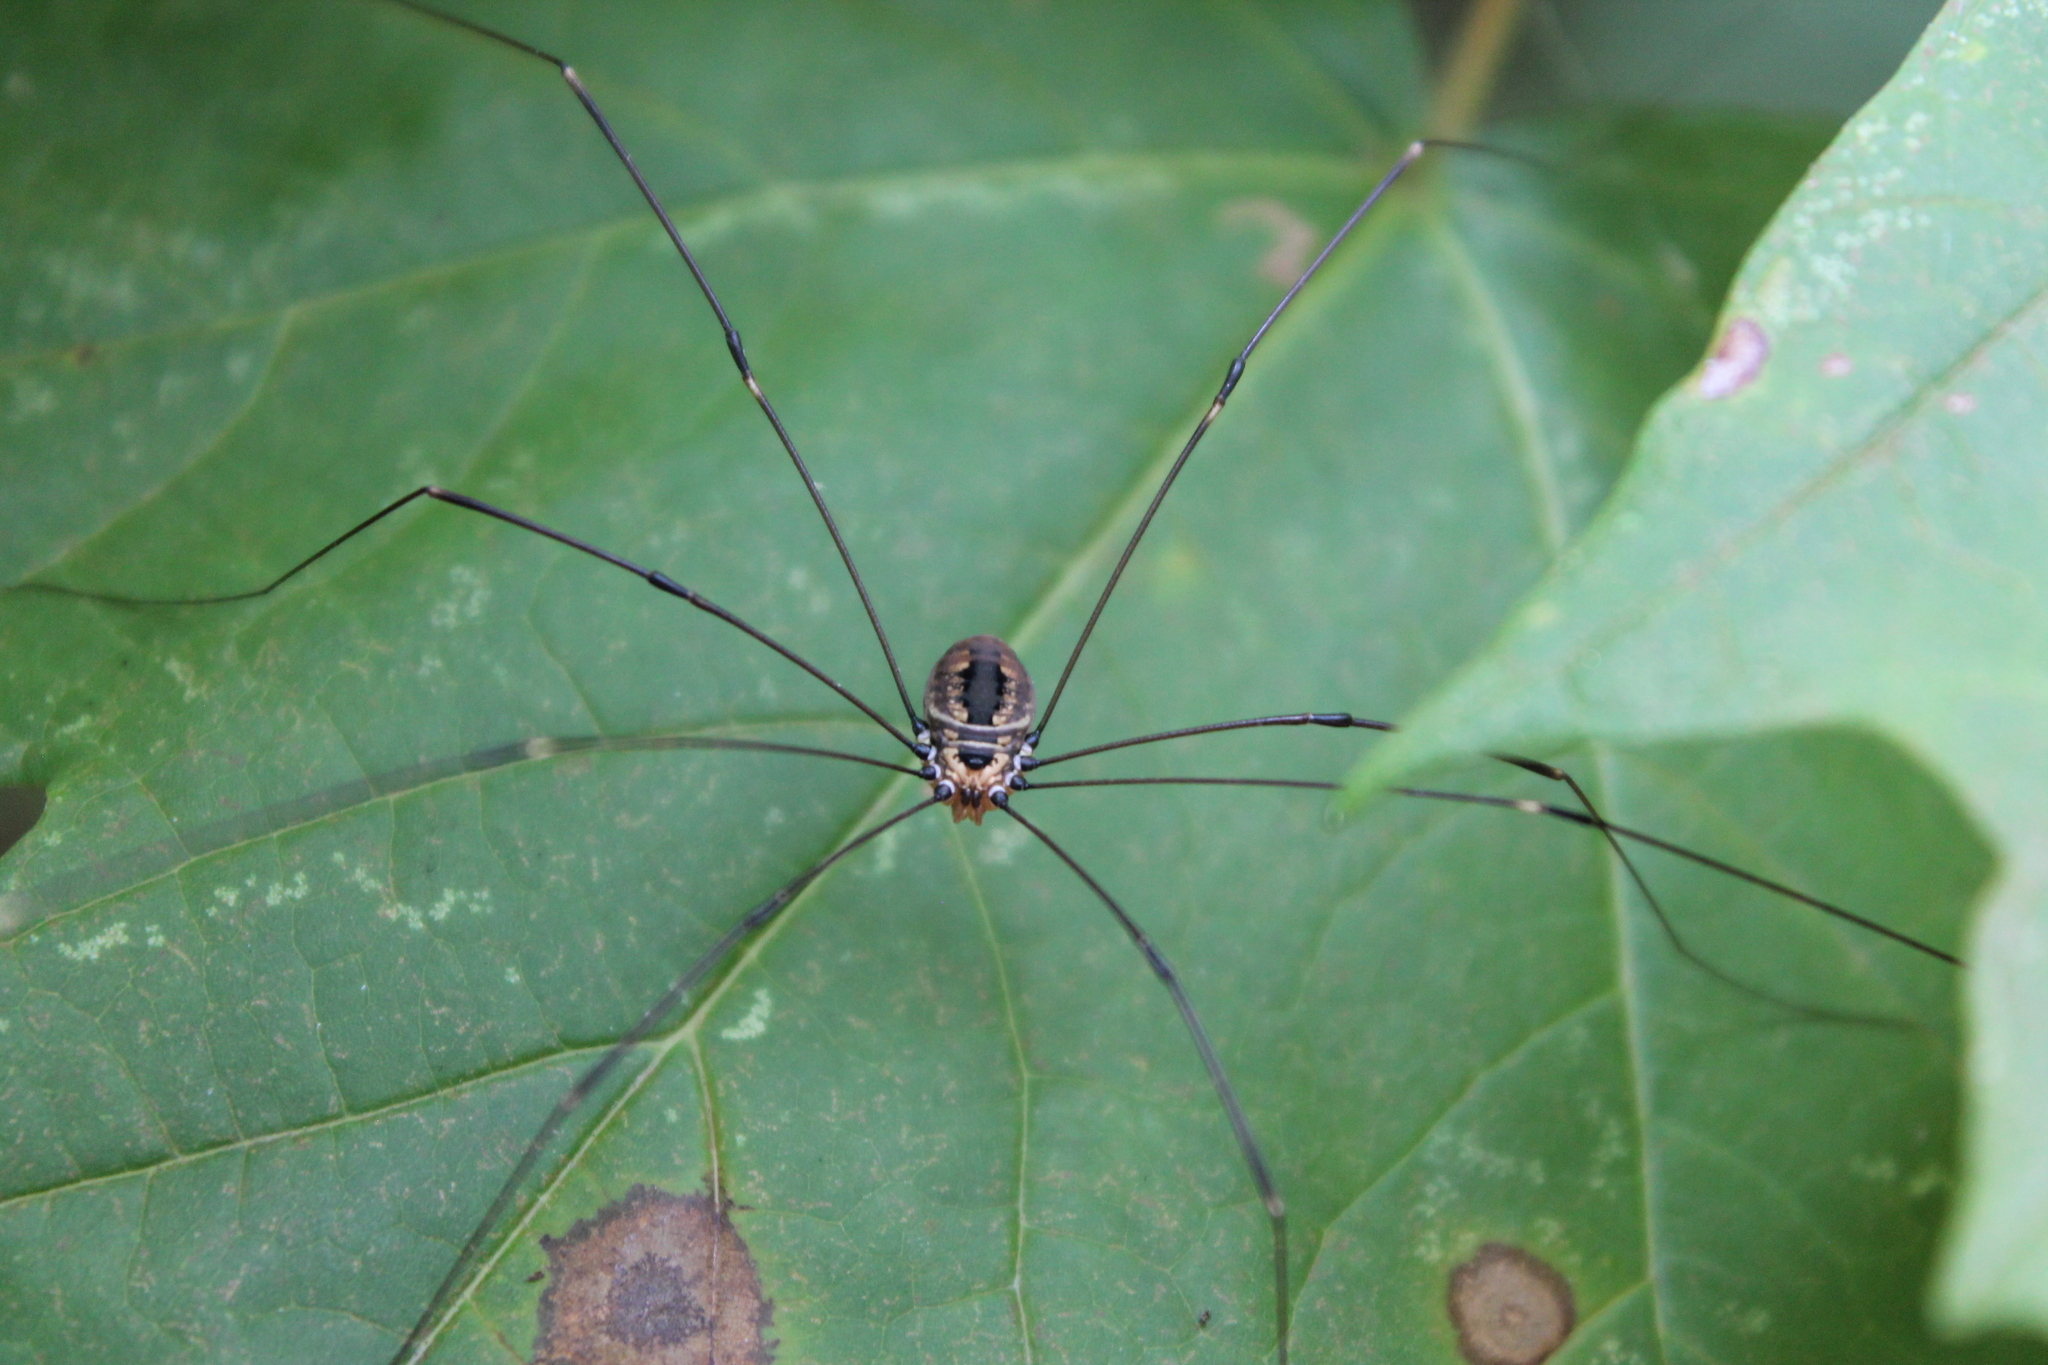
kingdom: Animalia
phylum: Arthropoda
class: Arachnida
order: Opiliones
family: Sclerosomatidae
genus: Leiobunum
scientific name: Leiobunum aldrichi
